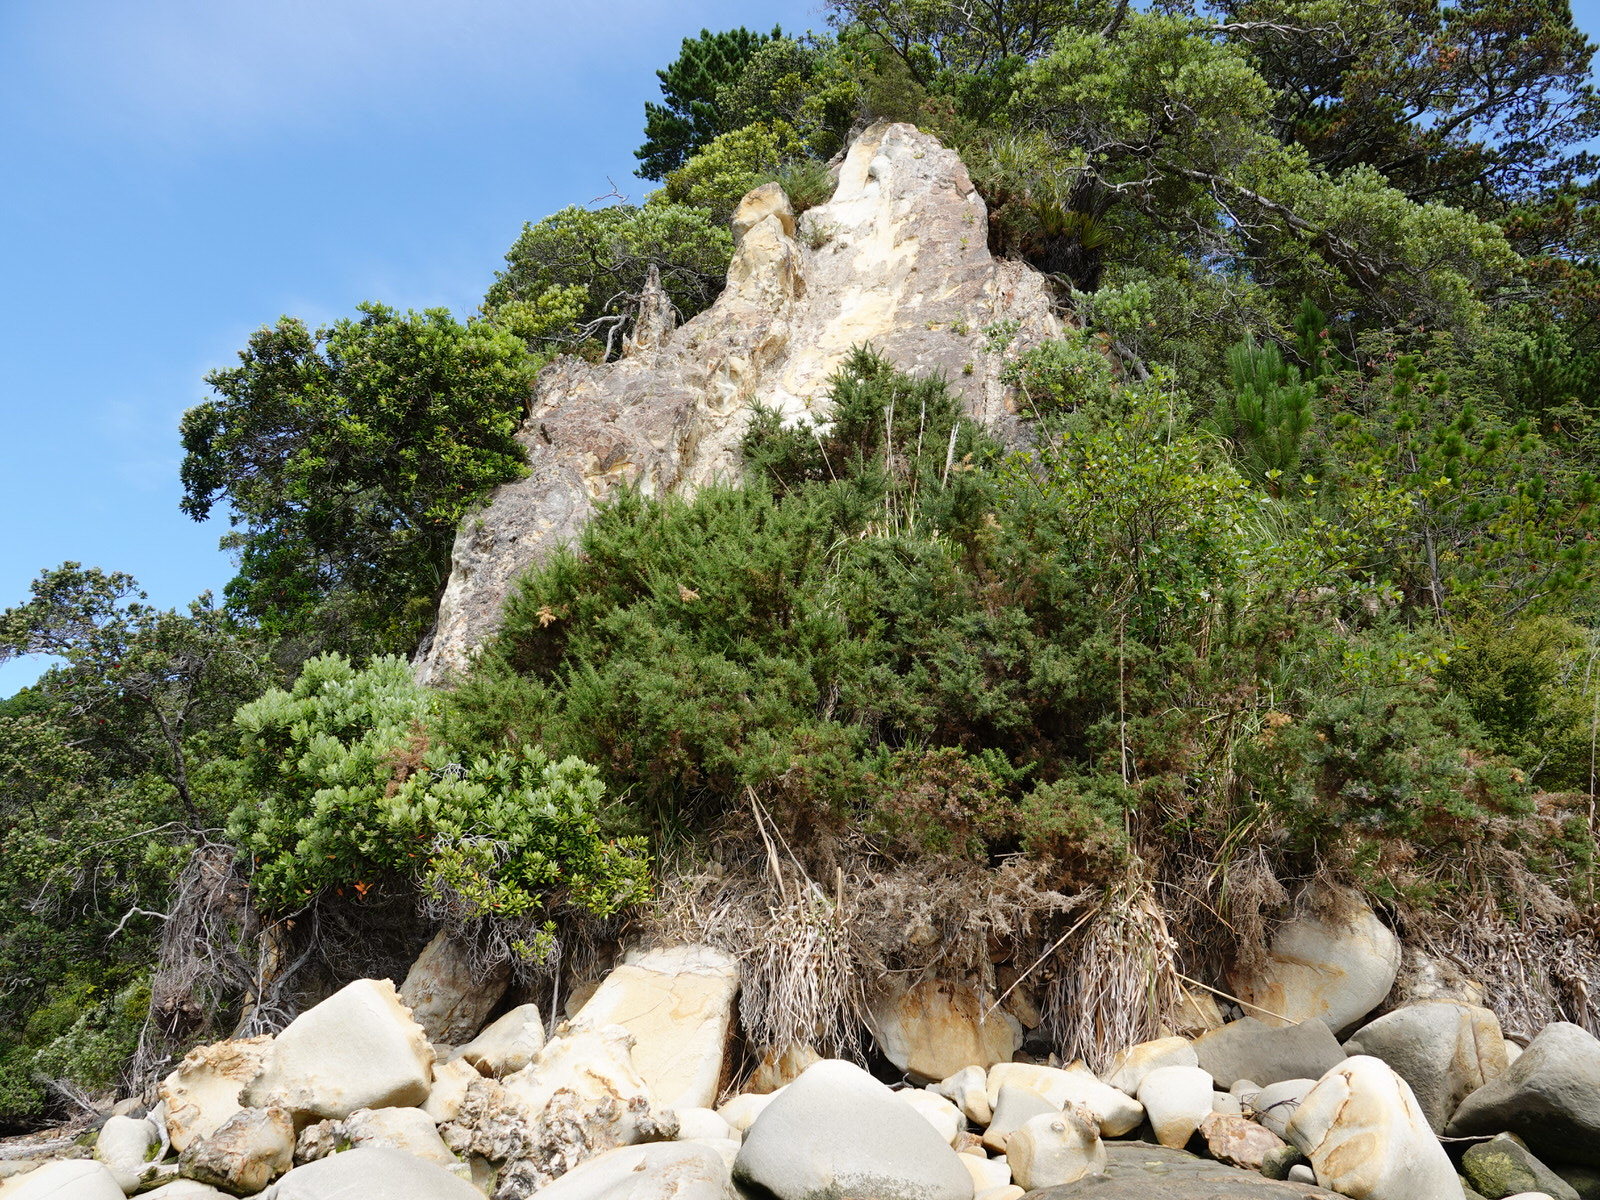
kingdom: Plantae
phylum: Tracheophyta
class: Magnoliopsida
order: Fabales
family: Fabaceae
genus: Ulex
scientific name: Ulex europaeus
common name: Common gorse
